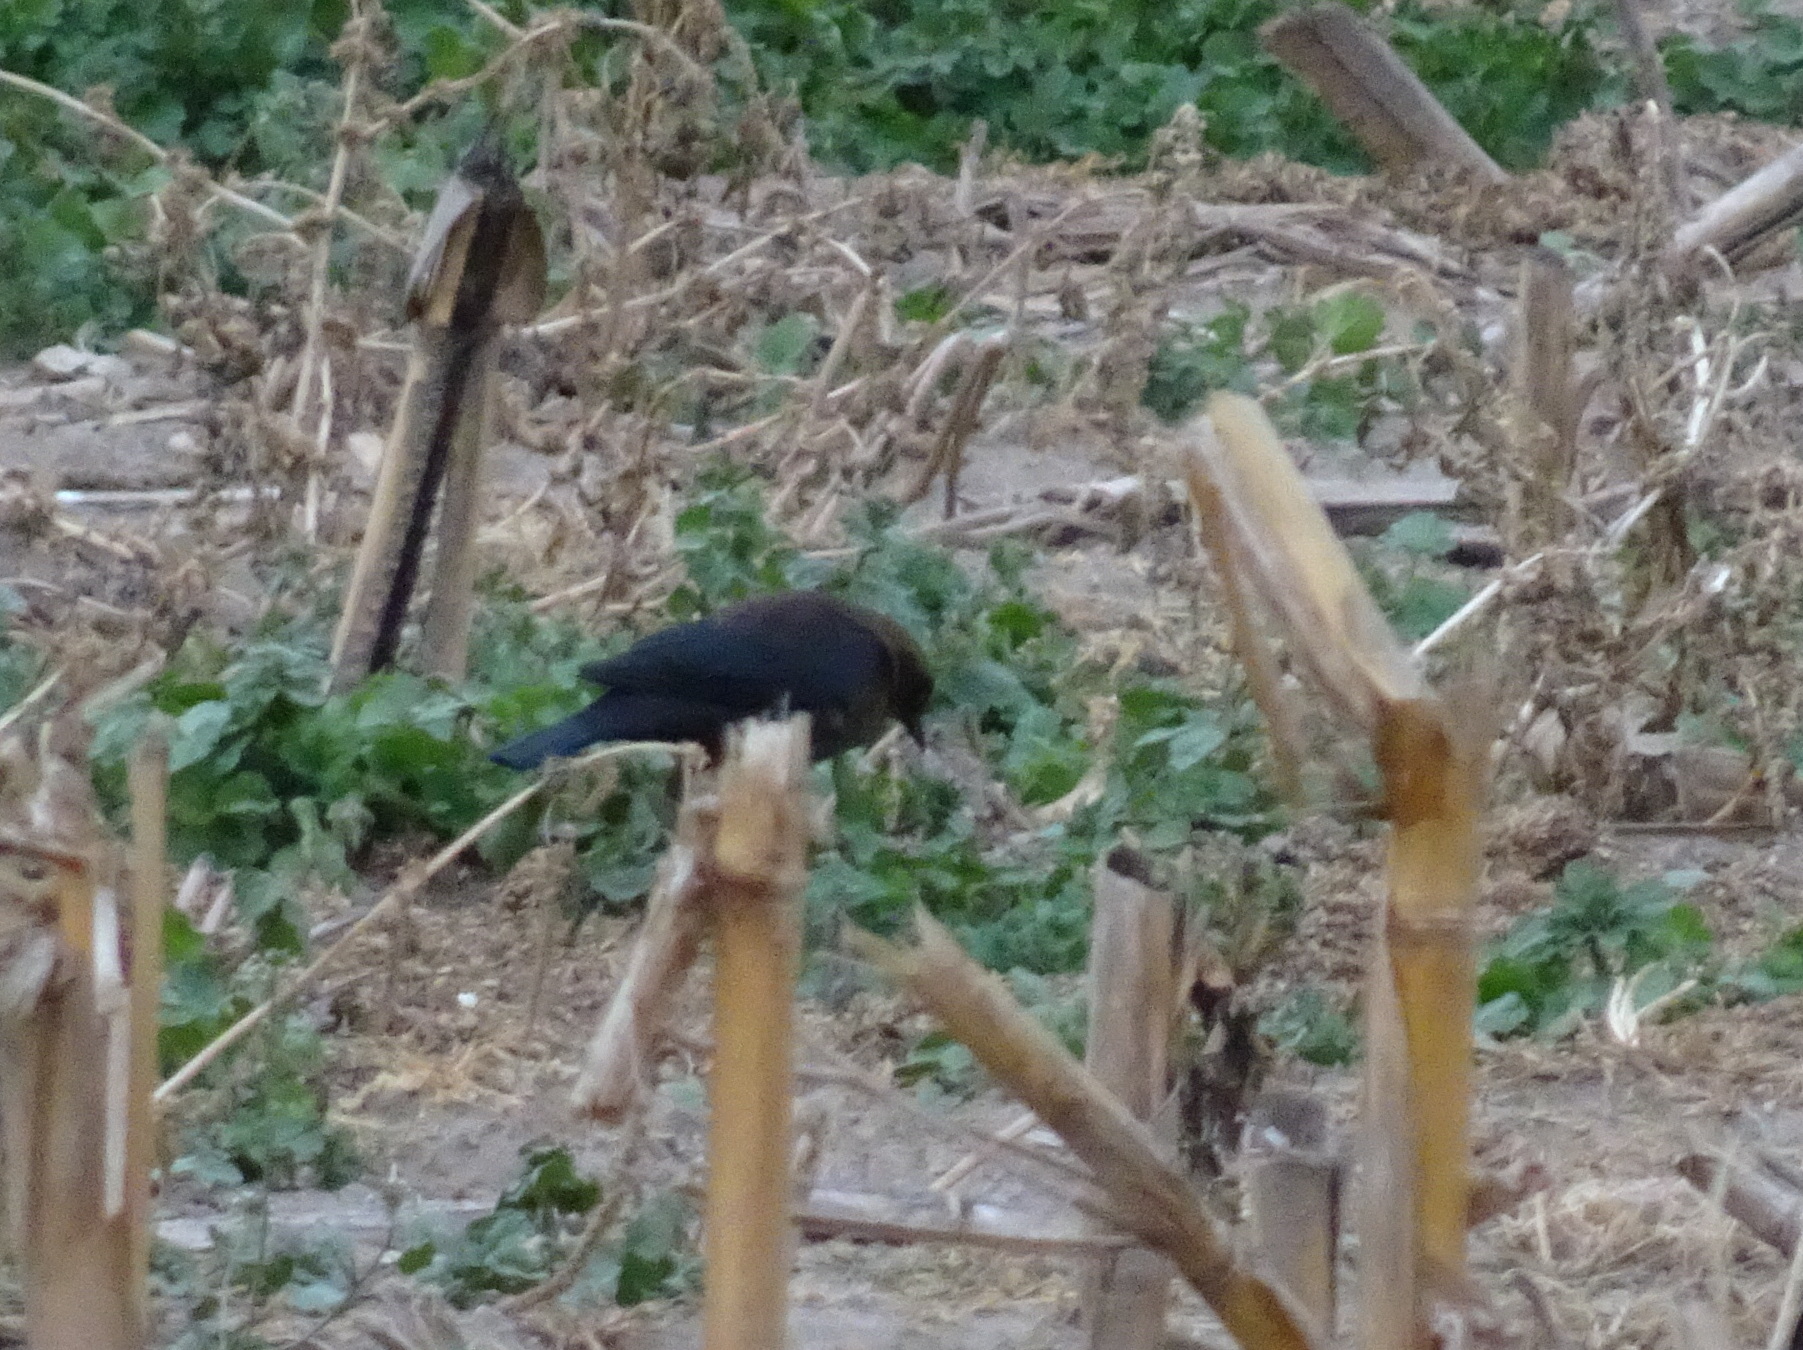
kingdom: Animalia
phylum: Chordata
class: Aves
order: Passeriformes
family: Icteridae
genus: Euphagus
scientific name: Euphagus carolinus
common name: Rusty blackbird
